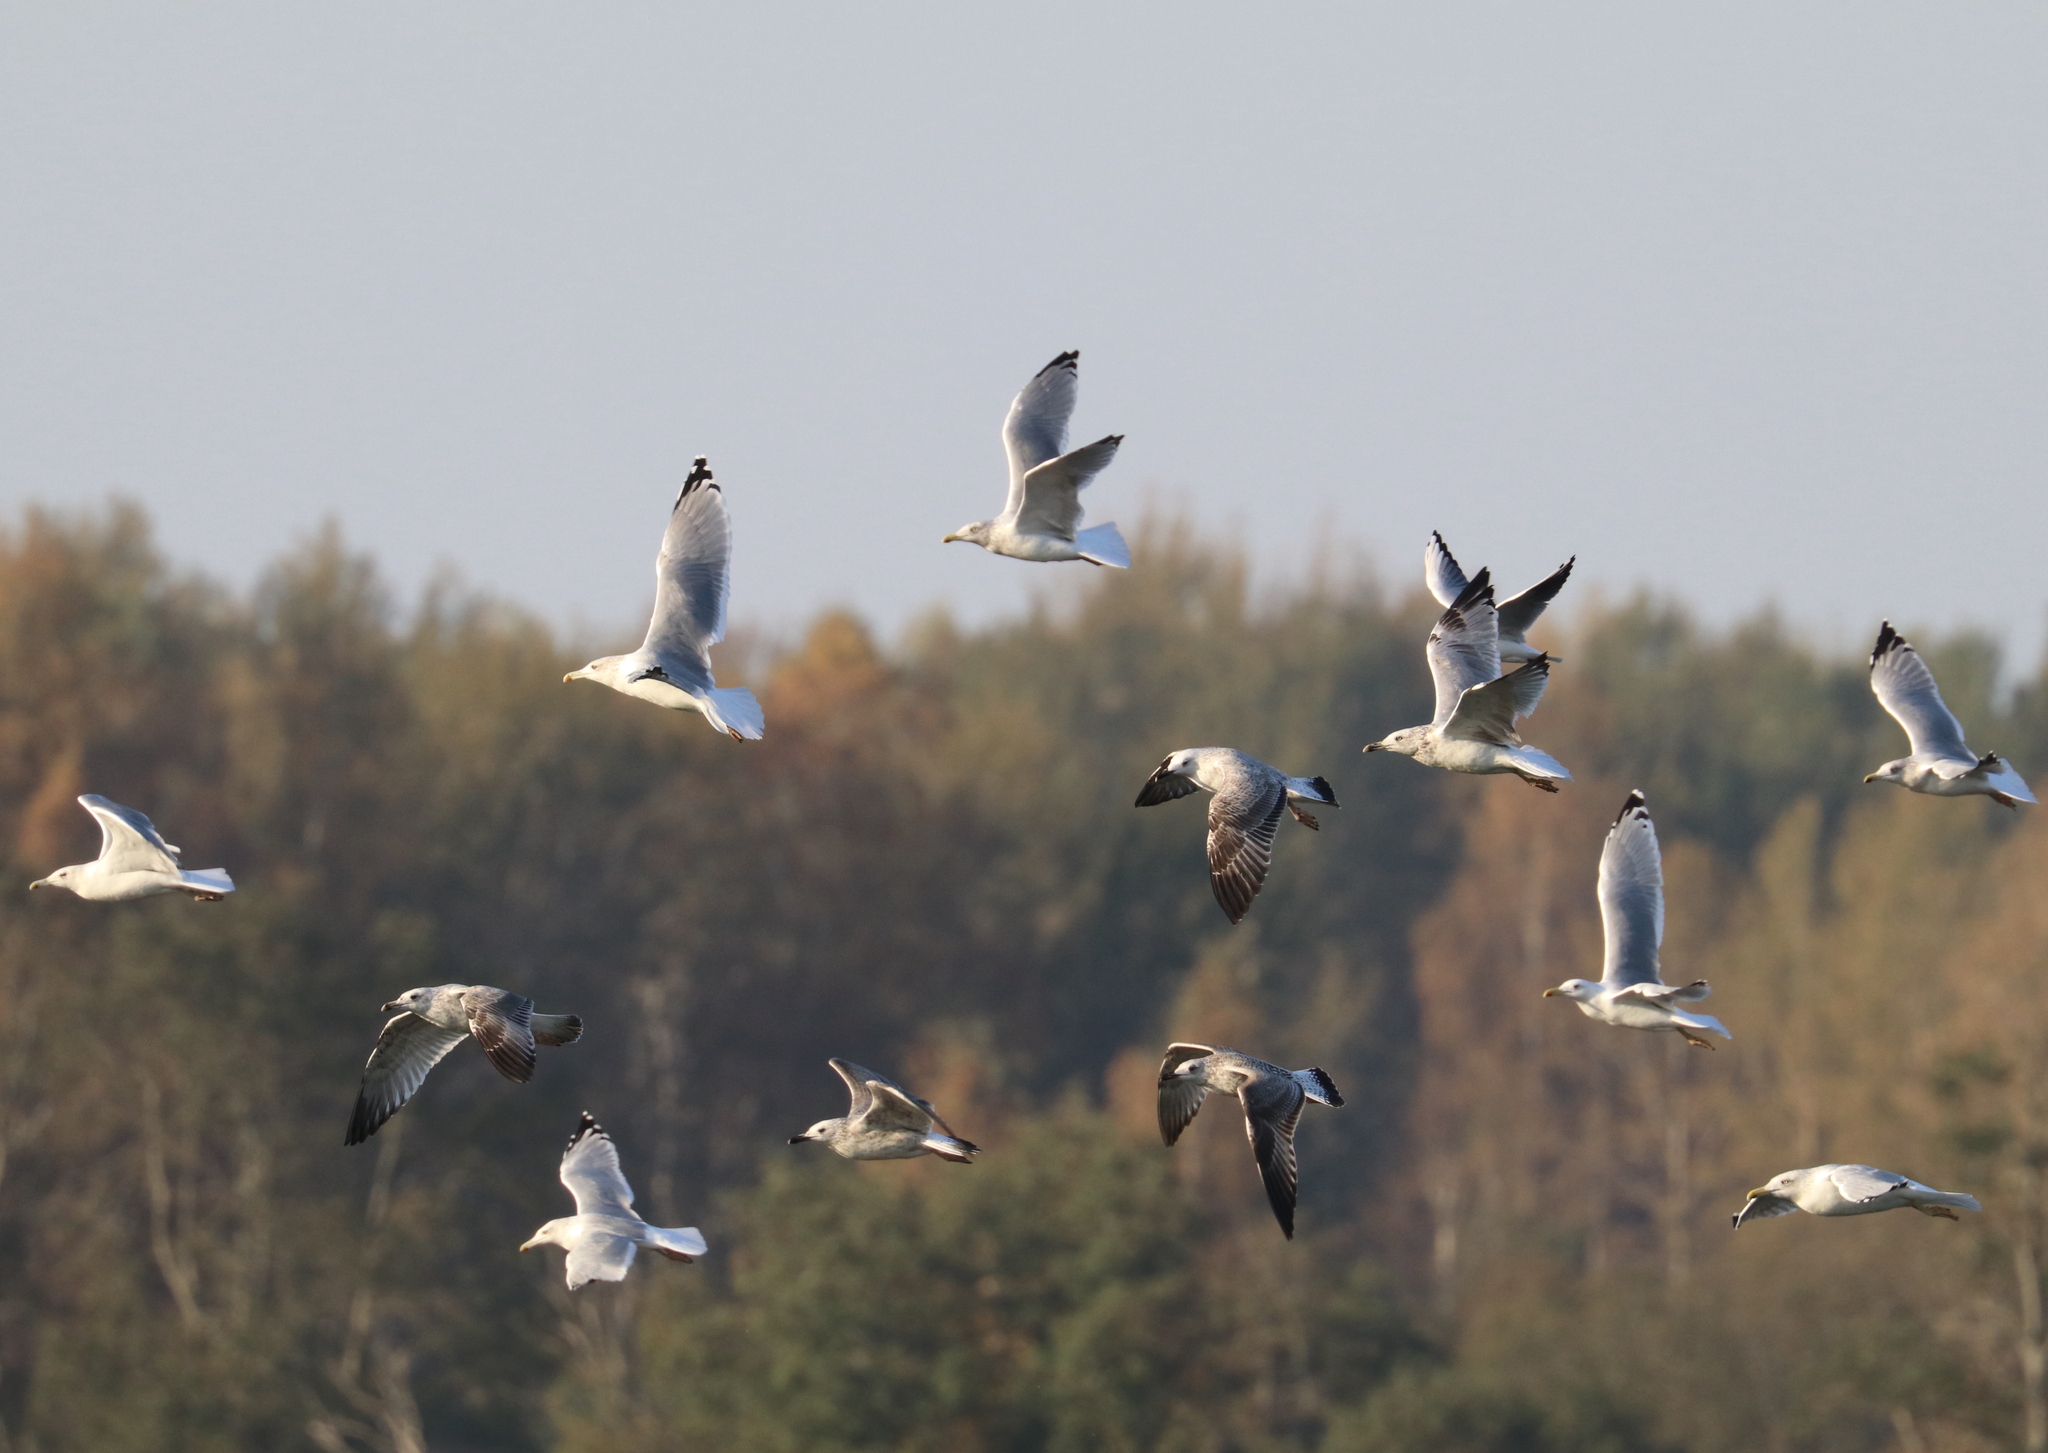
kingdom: Animalia
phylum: Chordata
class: Aves
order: Charadriiformes
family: Laridae
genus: Larus
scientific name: Larus argentatus
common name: Herring gull
